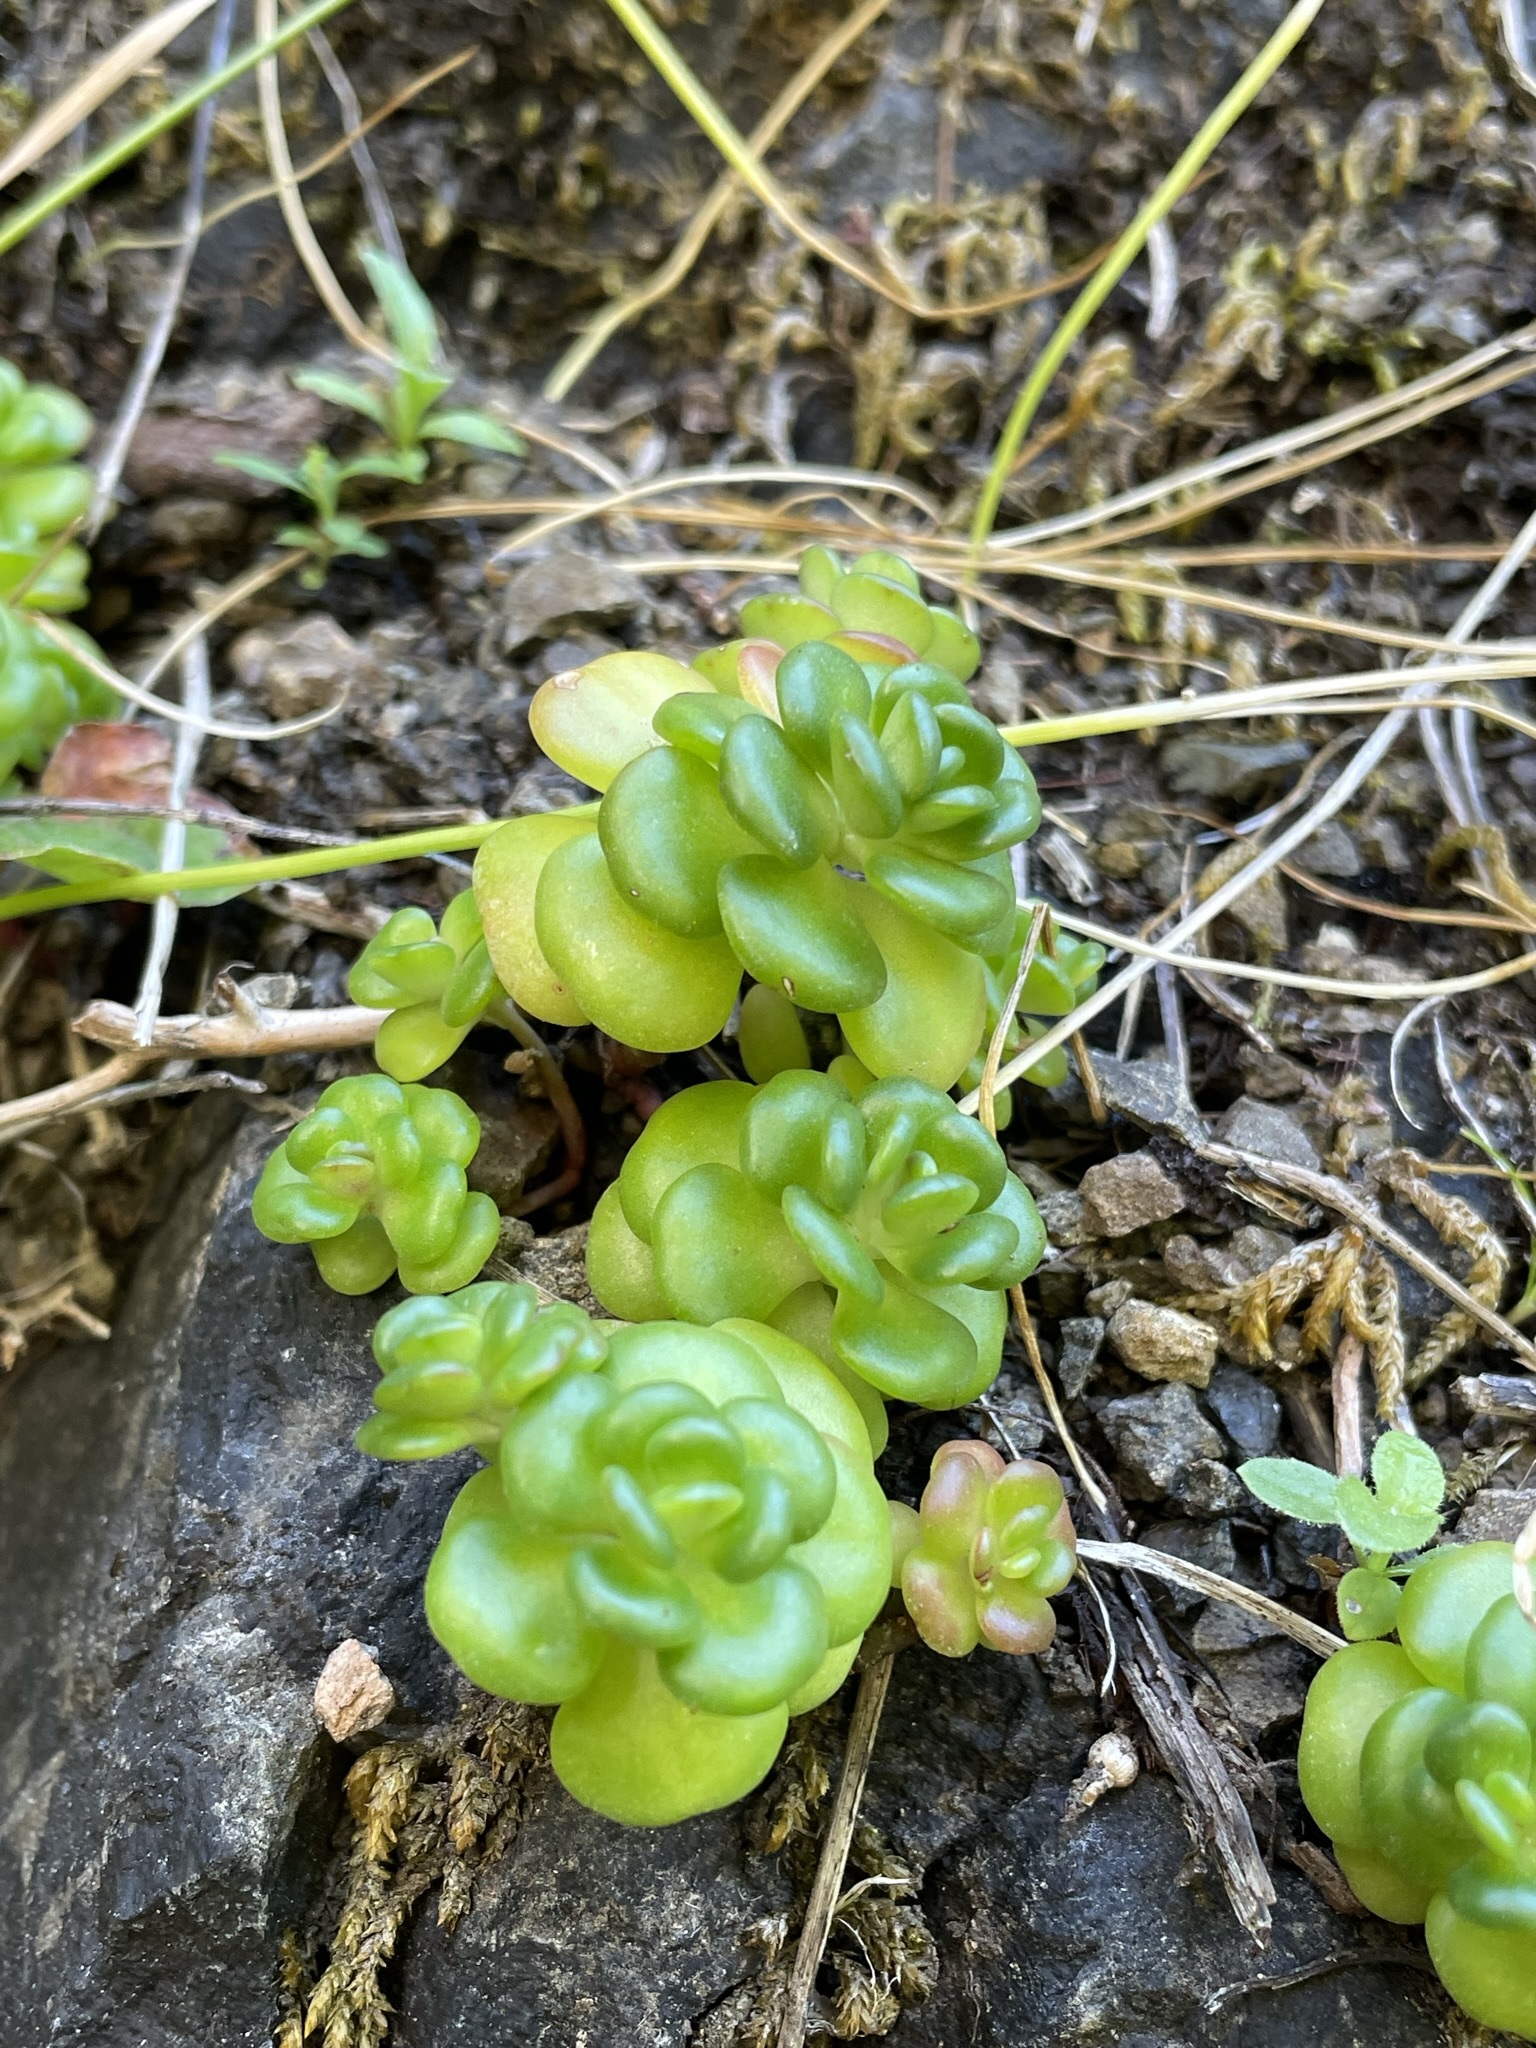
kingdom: Plantae
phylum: Tracheophyta
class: Magnoliopsida
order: Saxifragales
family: Crassulaceae
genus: Sedum
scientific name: Sedum oreganum
